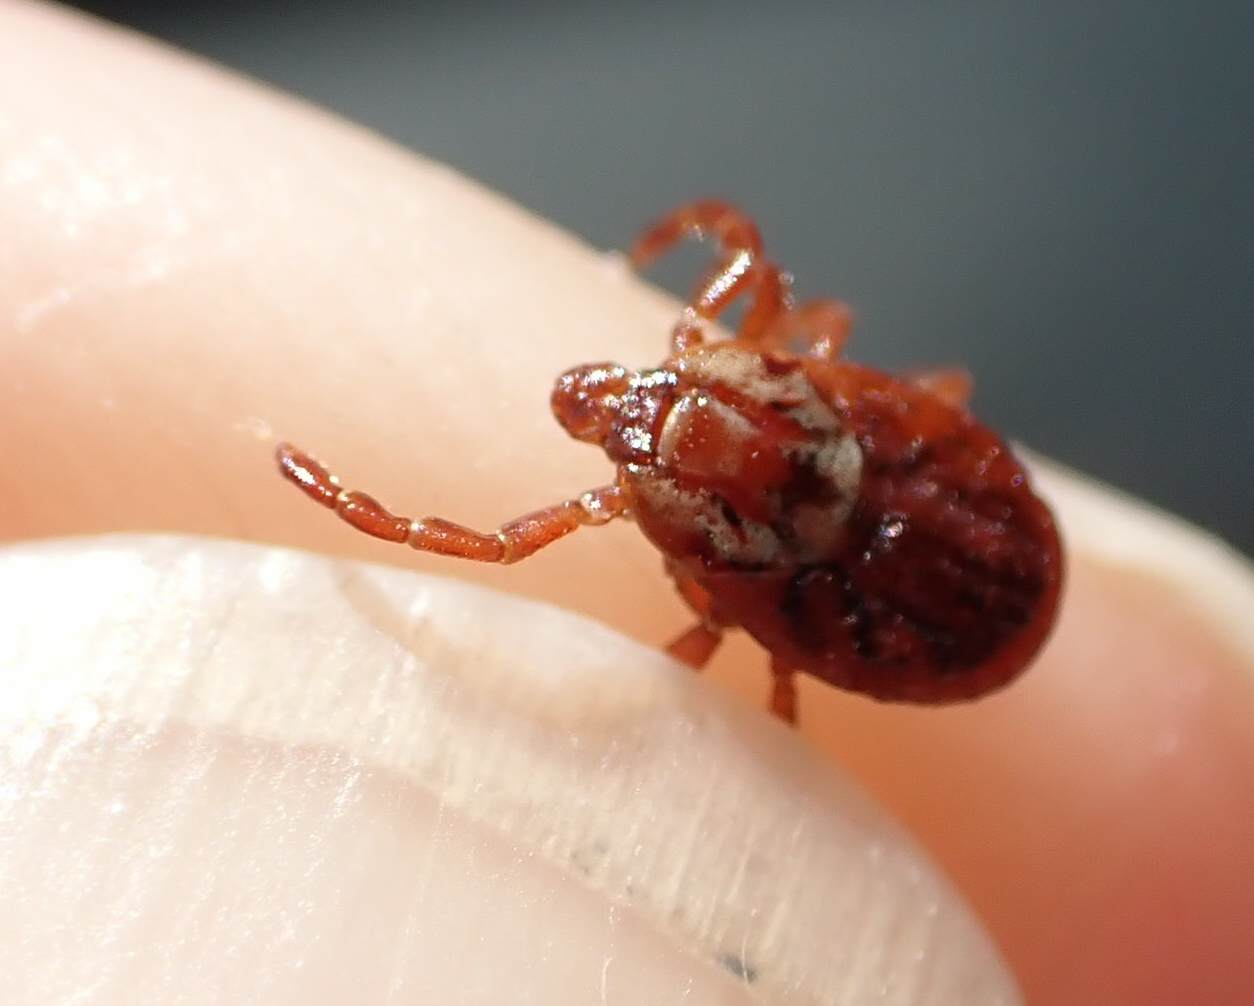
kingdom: Animalia
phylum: Arthropoda
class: Arachnida
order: Ixodida
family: Ixodidae
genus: Dermacentor
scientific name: Dermacentor variabilis
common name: American dog tick
